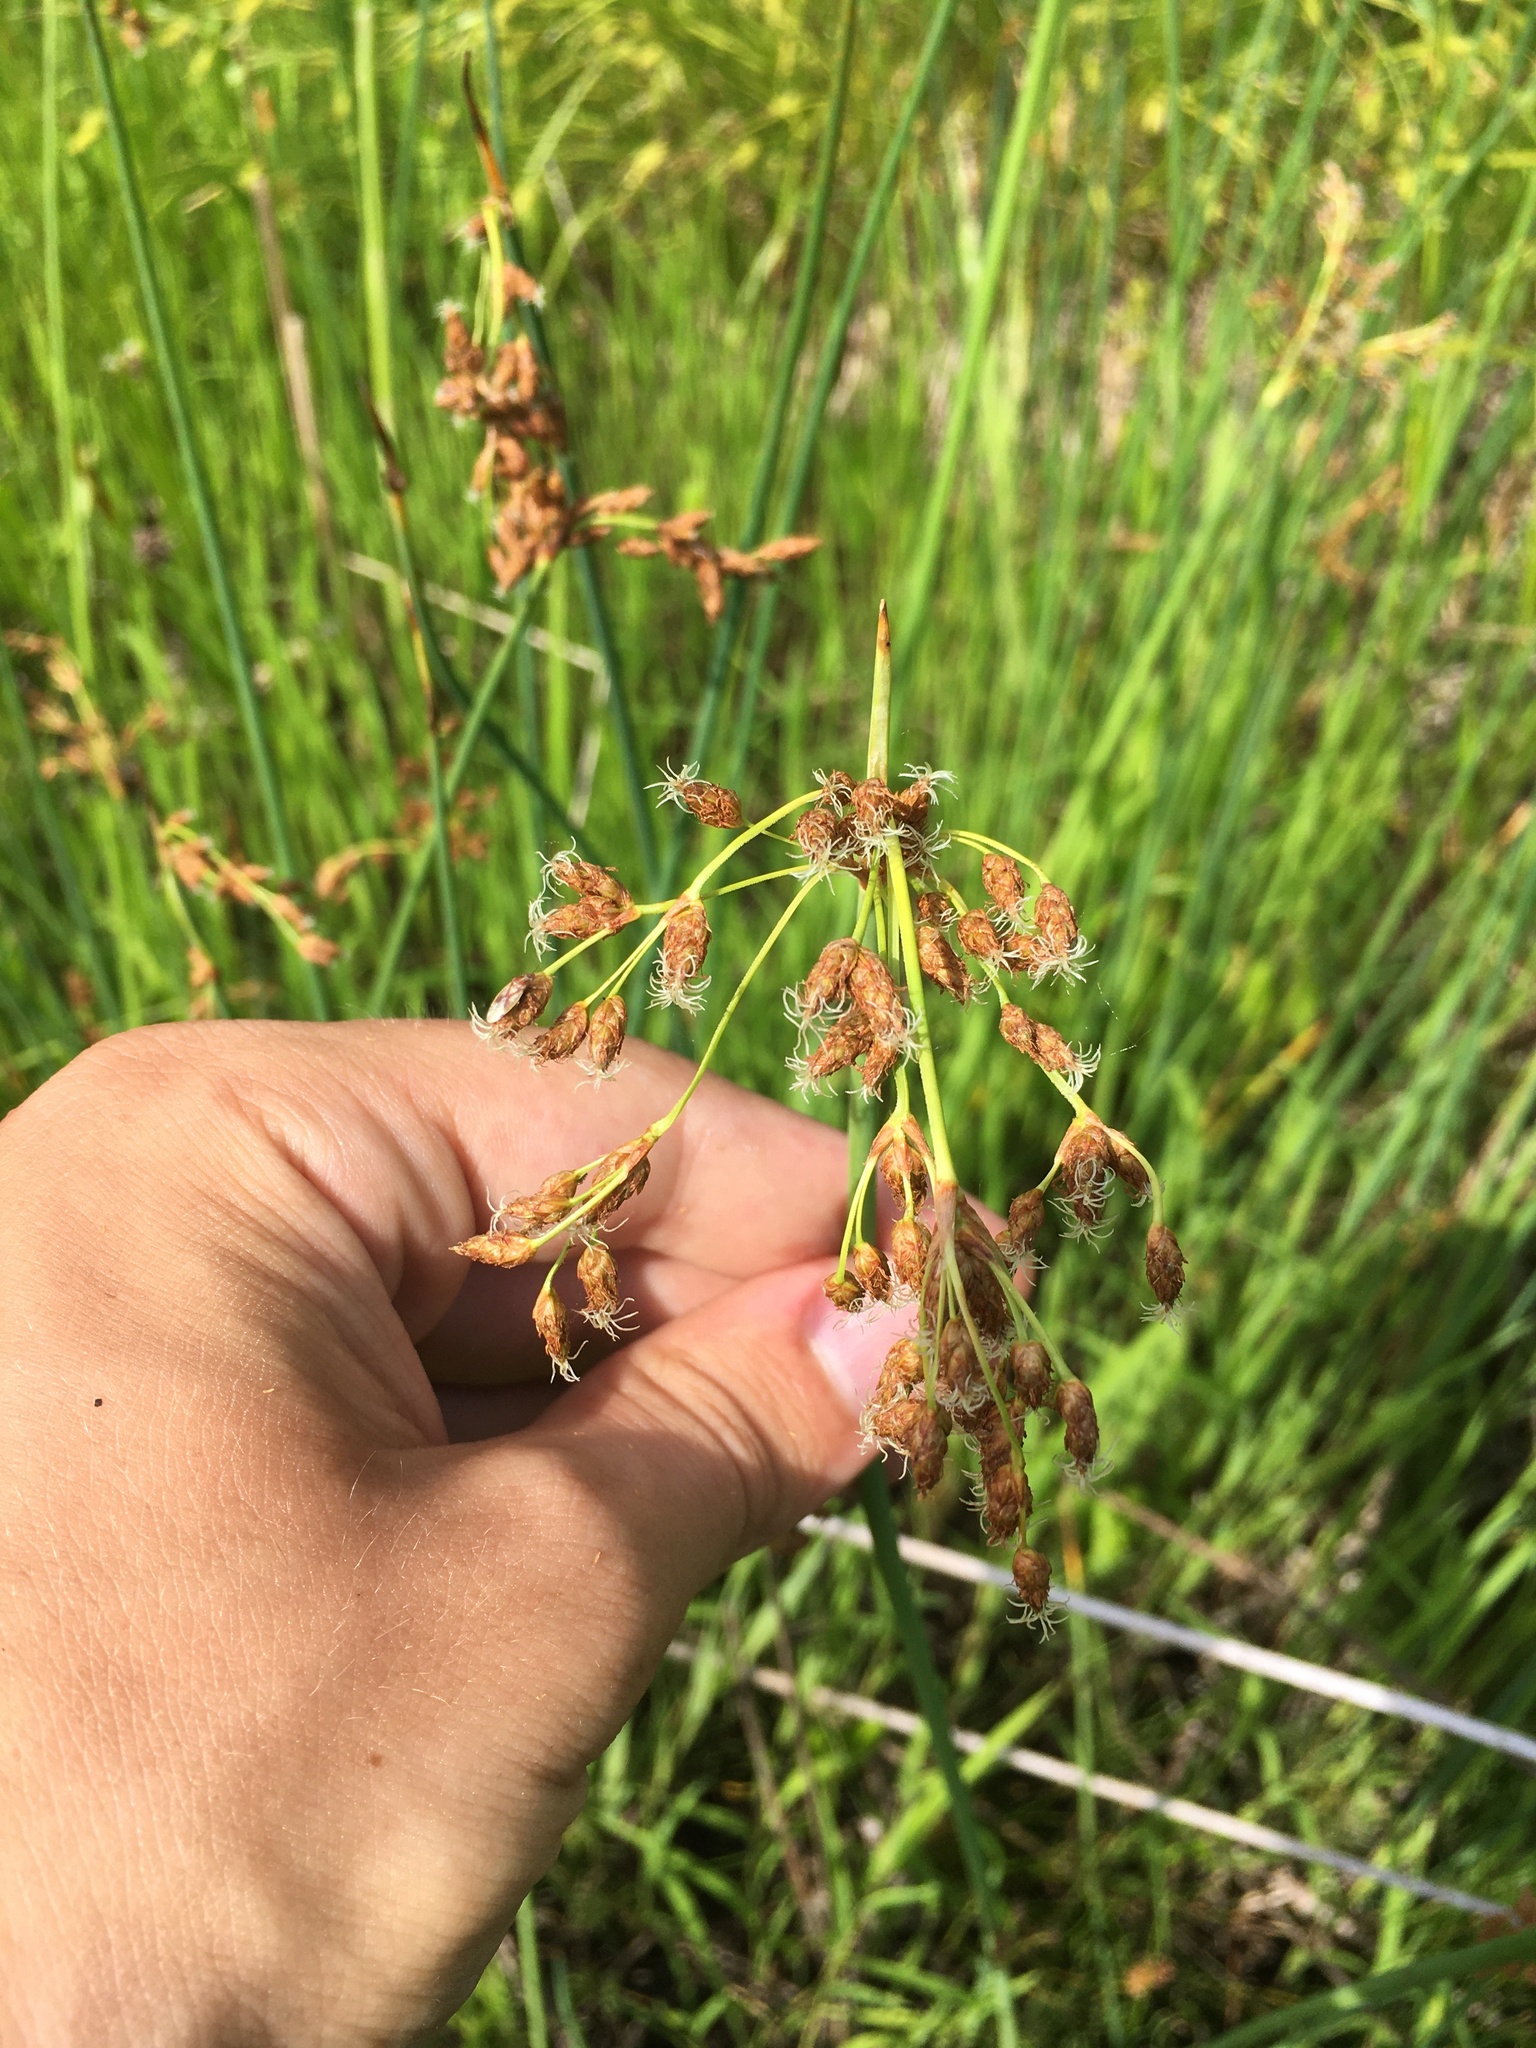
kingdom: Plantae
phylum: Tracheophyta
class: Liliopsida
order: Poales
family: Cyperaceae
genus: Schoenoplectus
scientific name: Schoenoplectus tabernaemontani
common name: Grey club-rush
